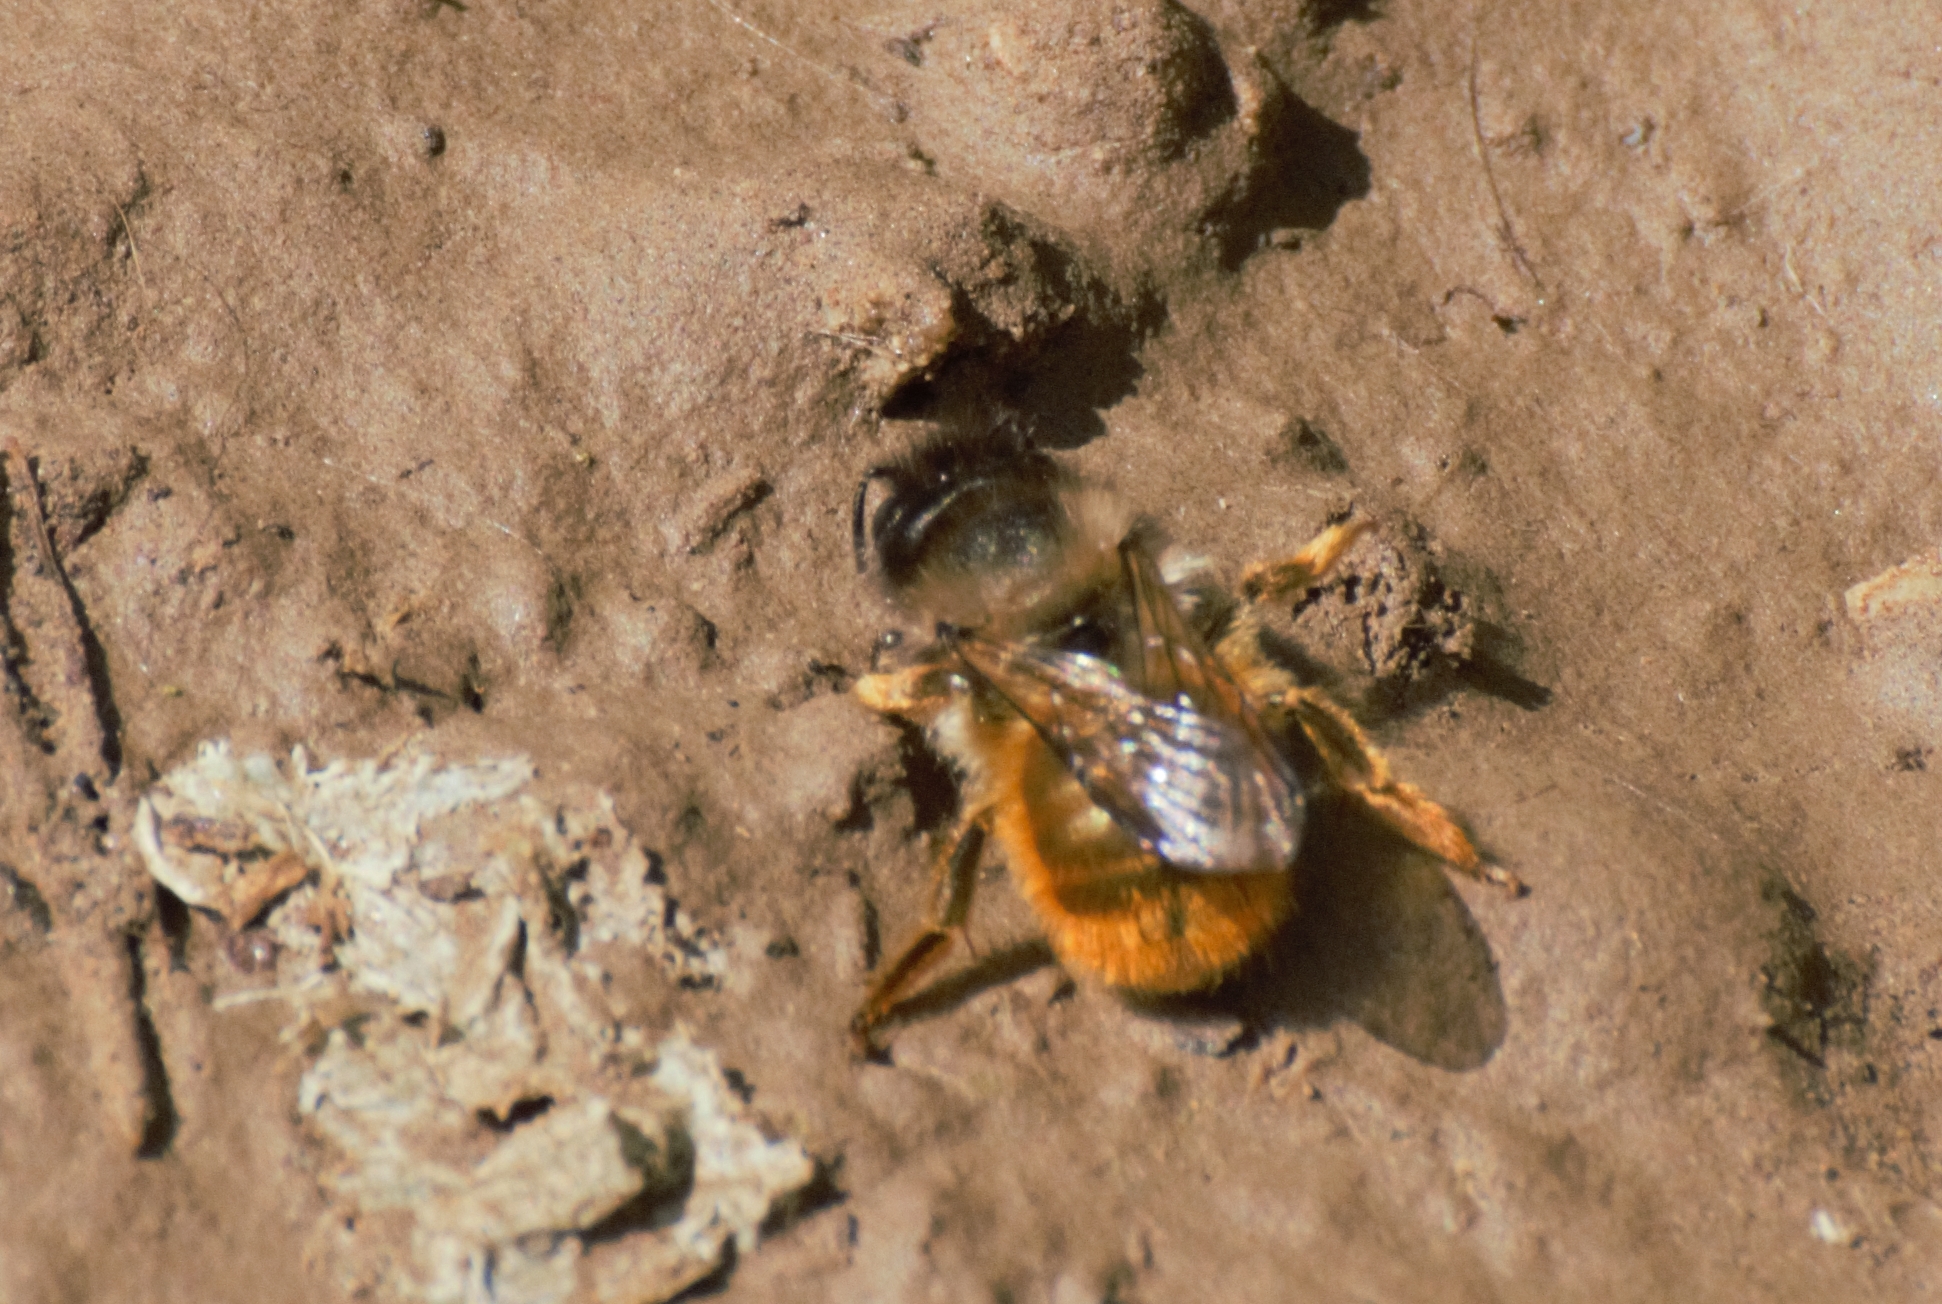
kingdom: Animalia
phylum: Arthropoda
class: Insecta
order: Hymenoptera
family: Megachilidae
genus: Osmia
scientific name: Osmia bicornis
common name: Red mason bee
